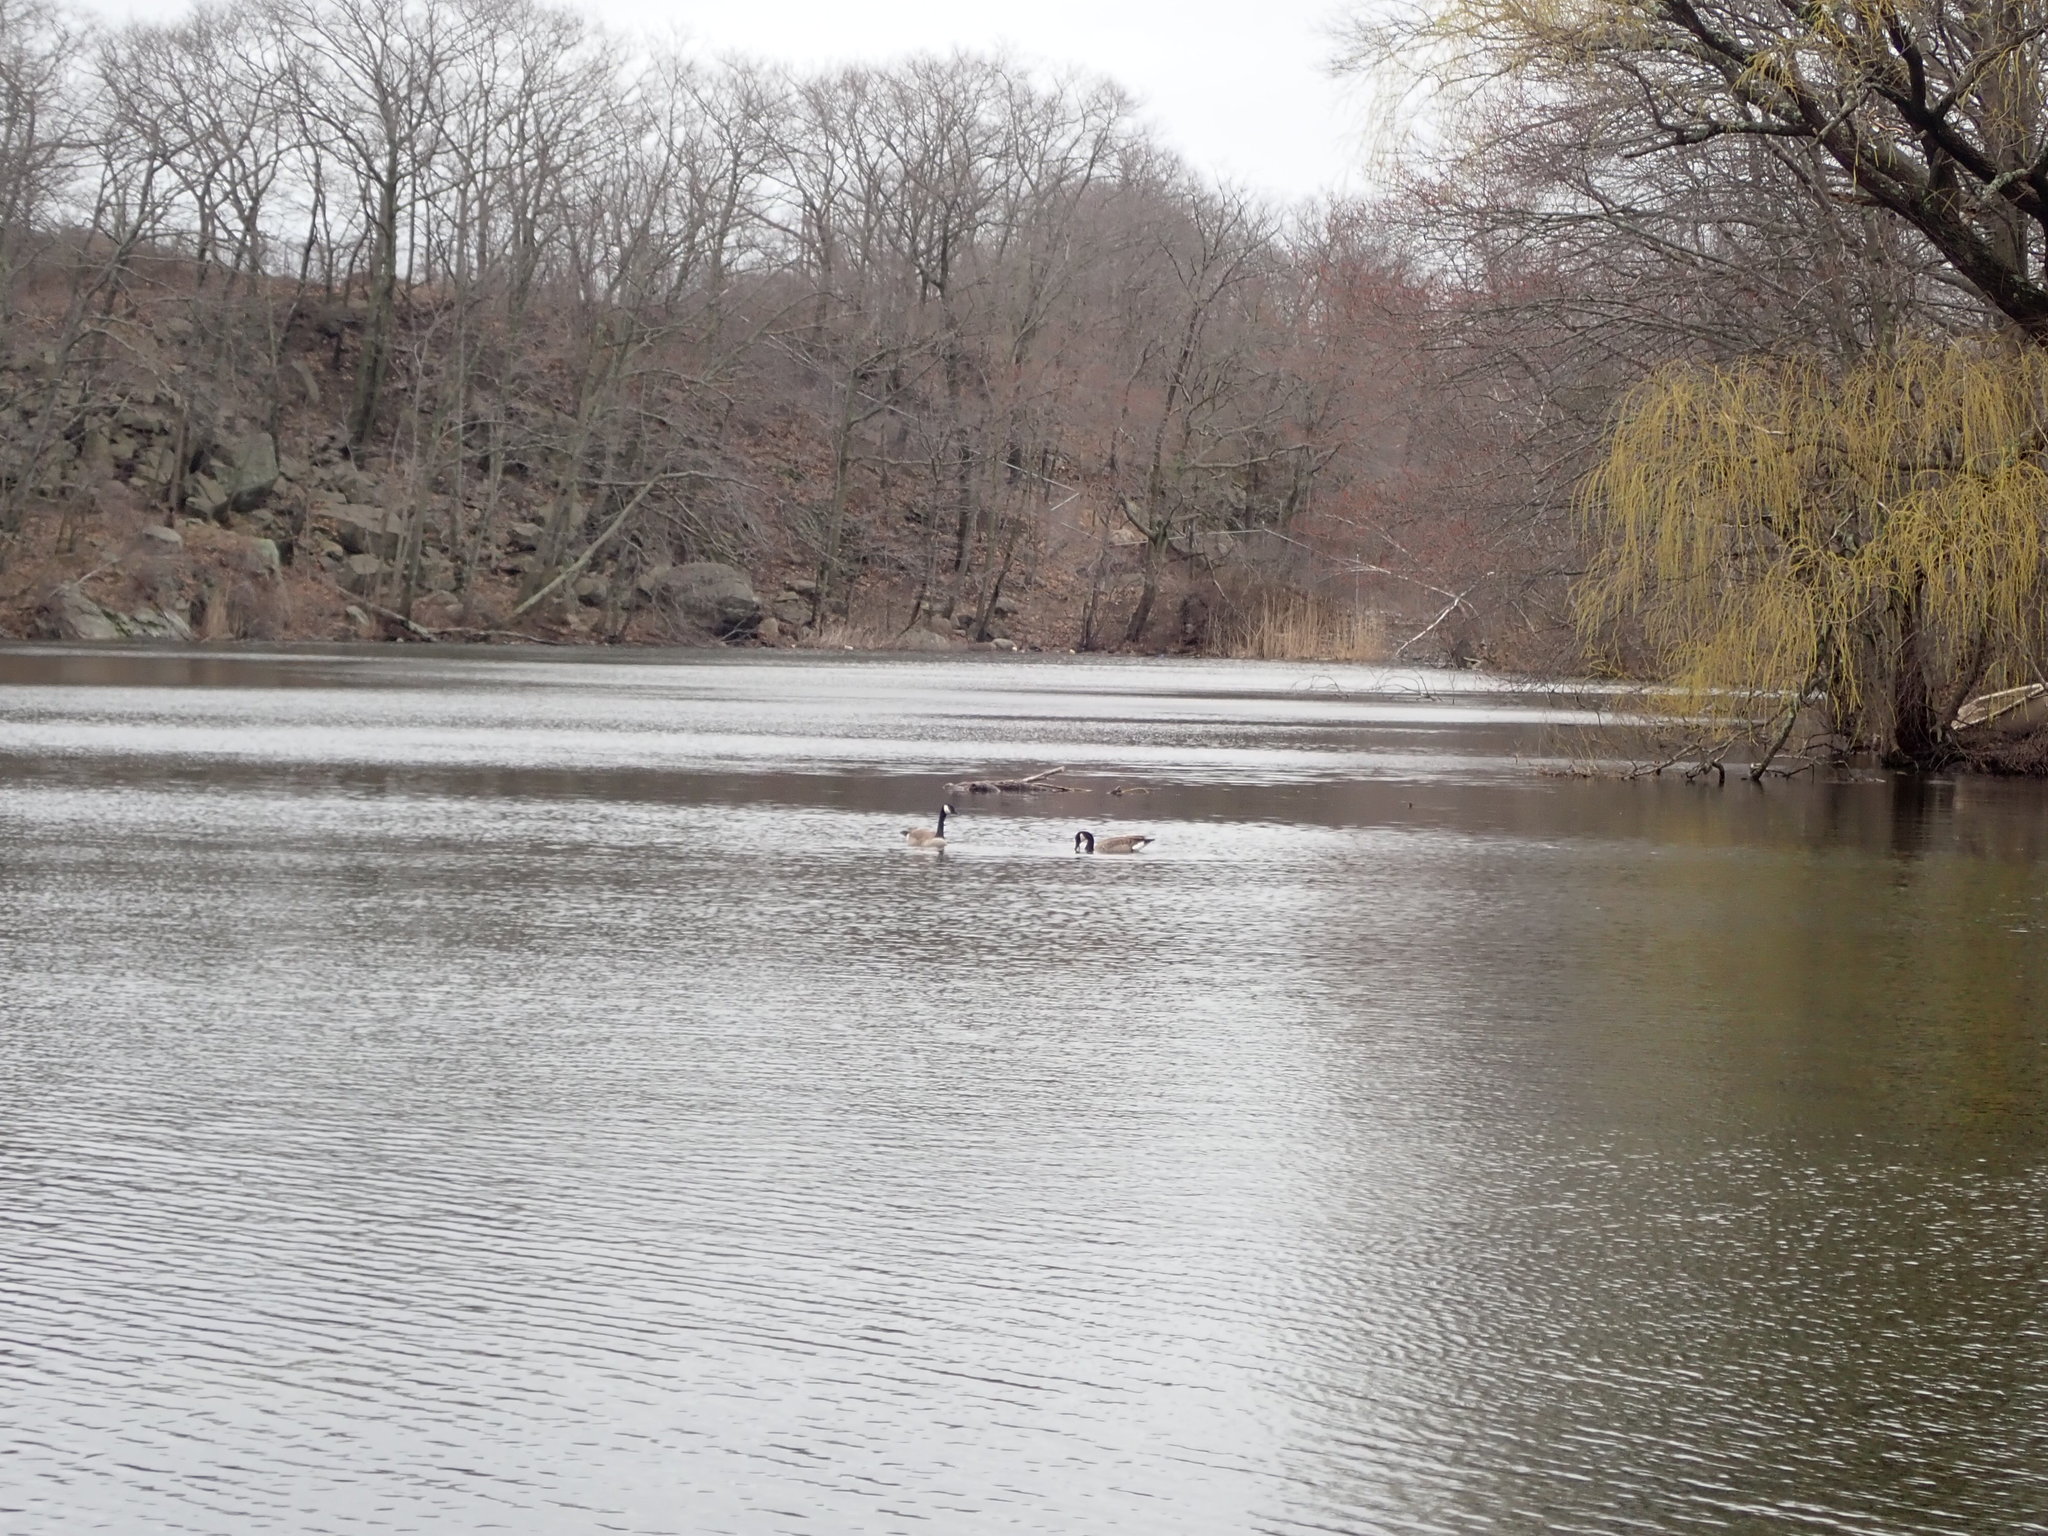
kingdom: Animalia
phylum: Chordata
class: Aves
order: Anseriformes
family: Anatidae
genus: Branta
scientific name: Branta canadensis
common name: Canada goose
